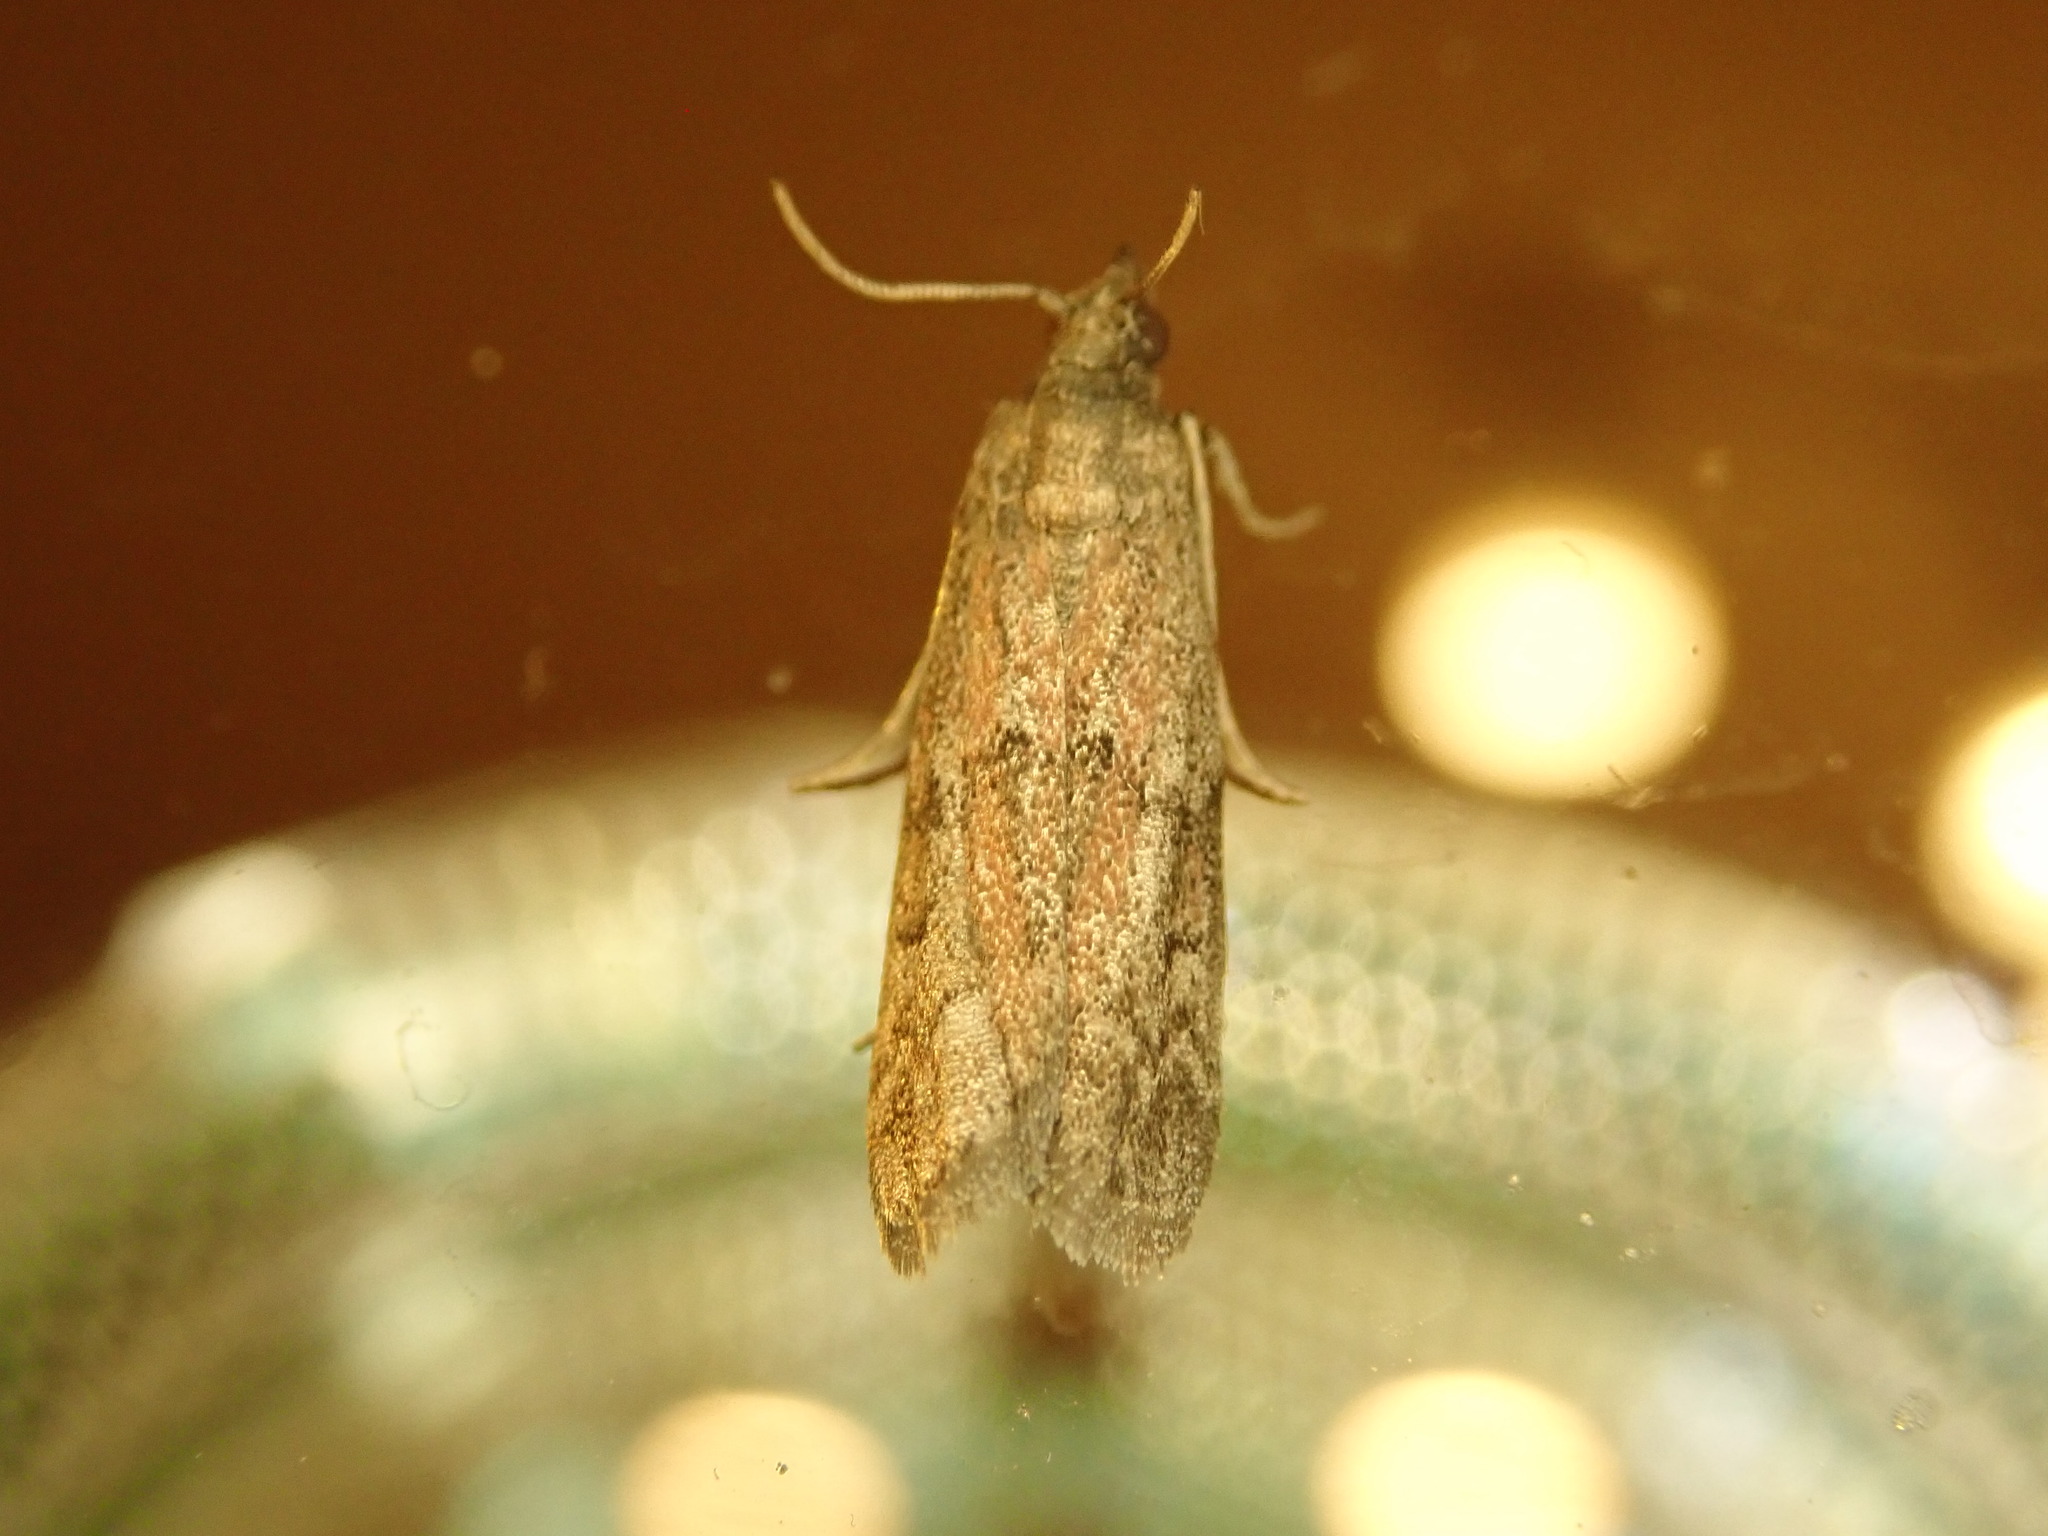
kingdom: Animalia
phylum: Arthropoda
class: Insecta
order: Lepidoptera
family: Pyralidae
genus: Vitula
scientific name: Vitula edmandsii
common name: Dried fruit moth
